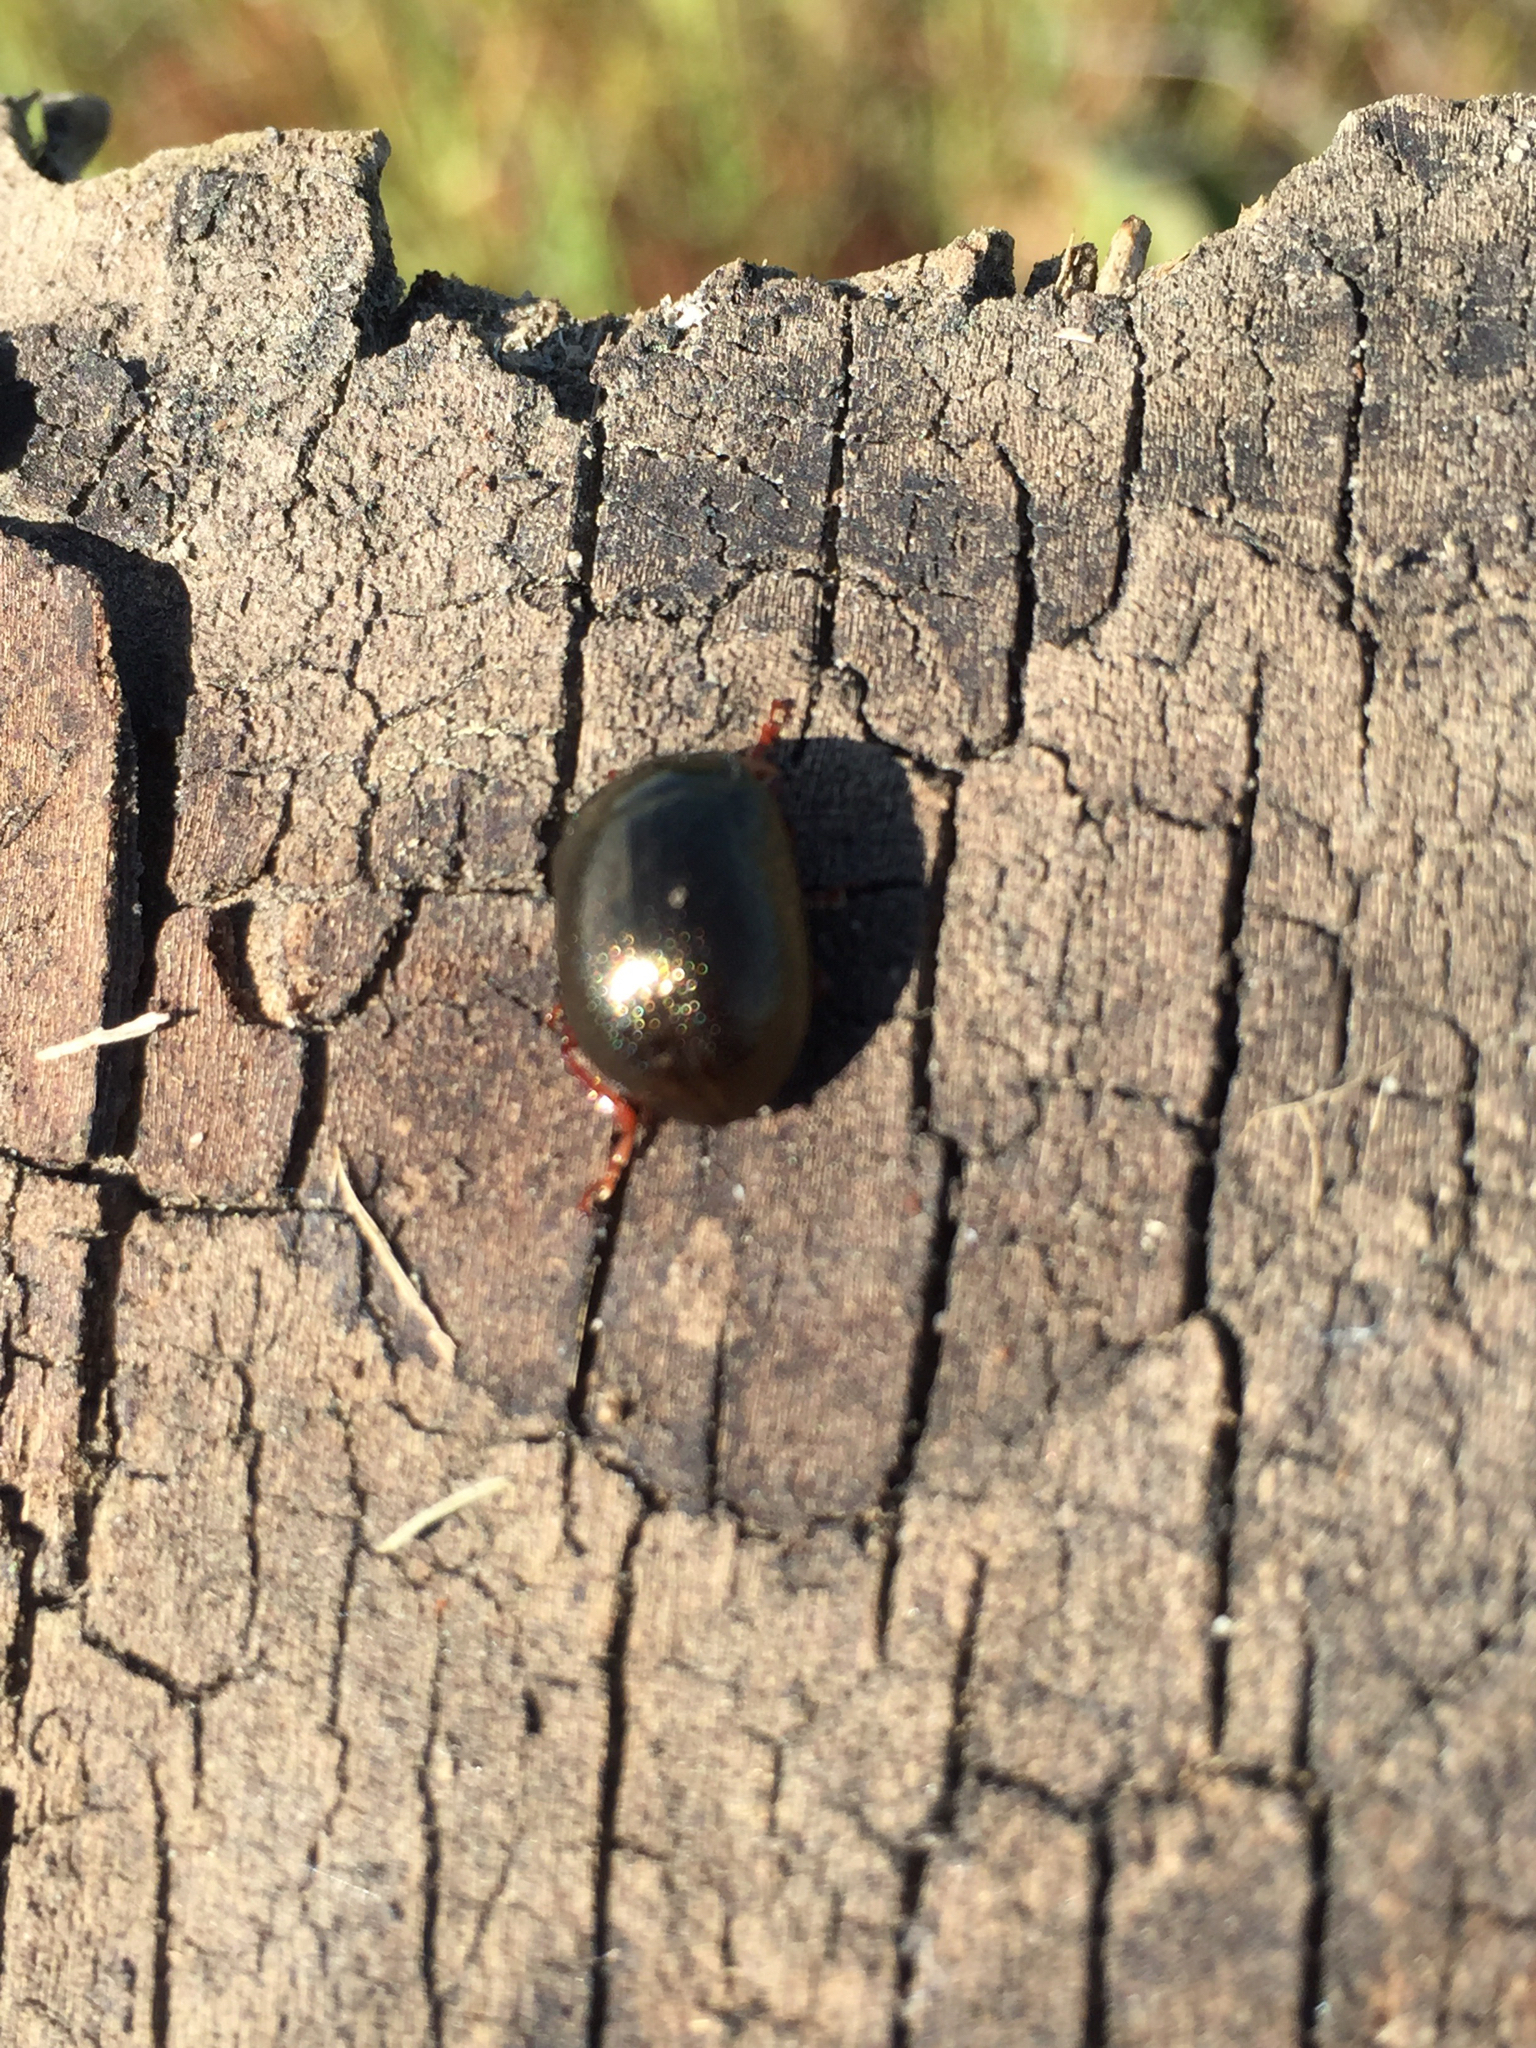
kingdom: Animalia
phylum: Arthropoda
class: Insecta
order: Coleoptera
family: Chrysomelidae
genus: Chrysolina
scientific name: Chrysolina bankii
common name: Leaf beetle
